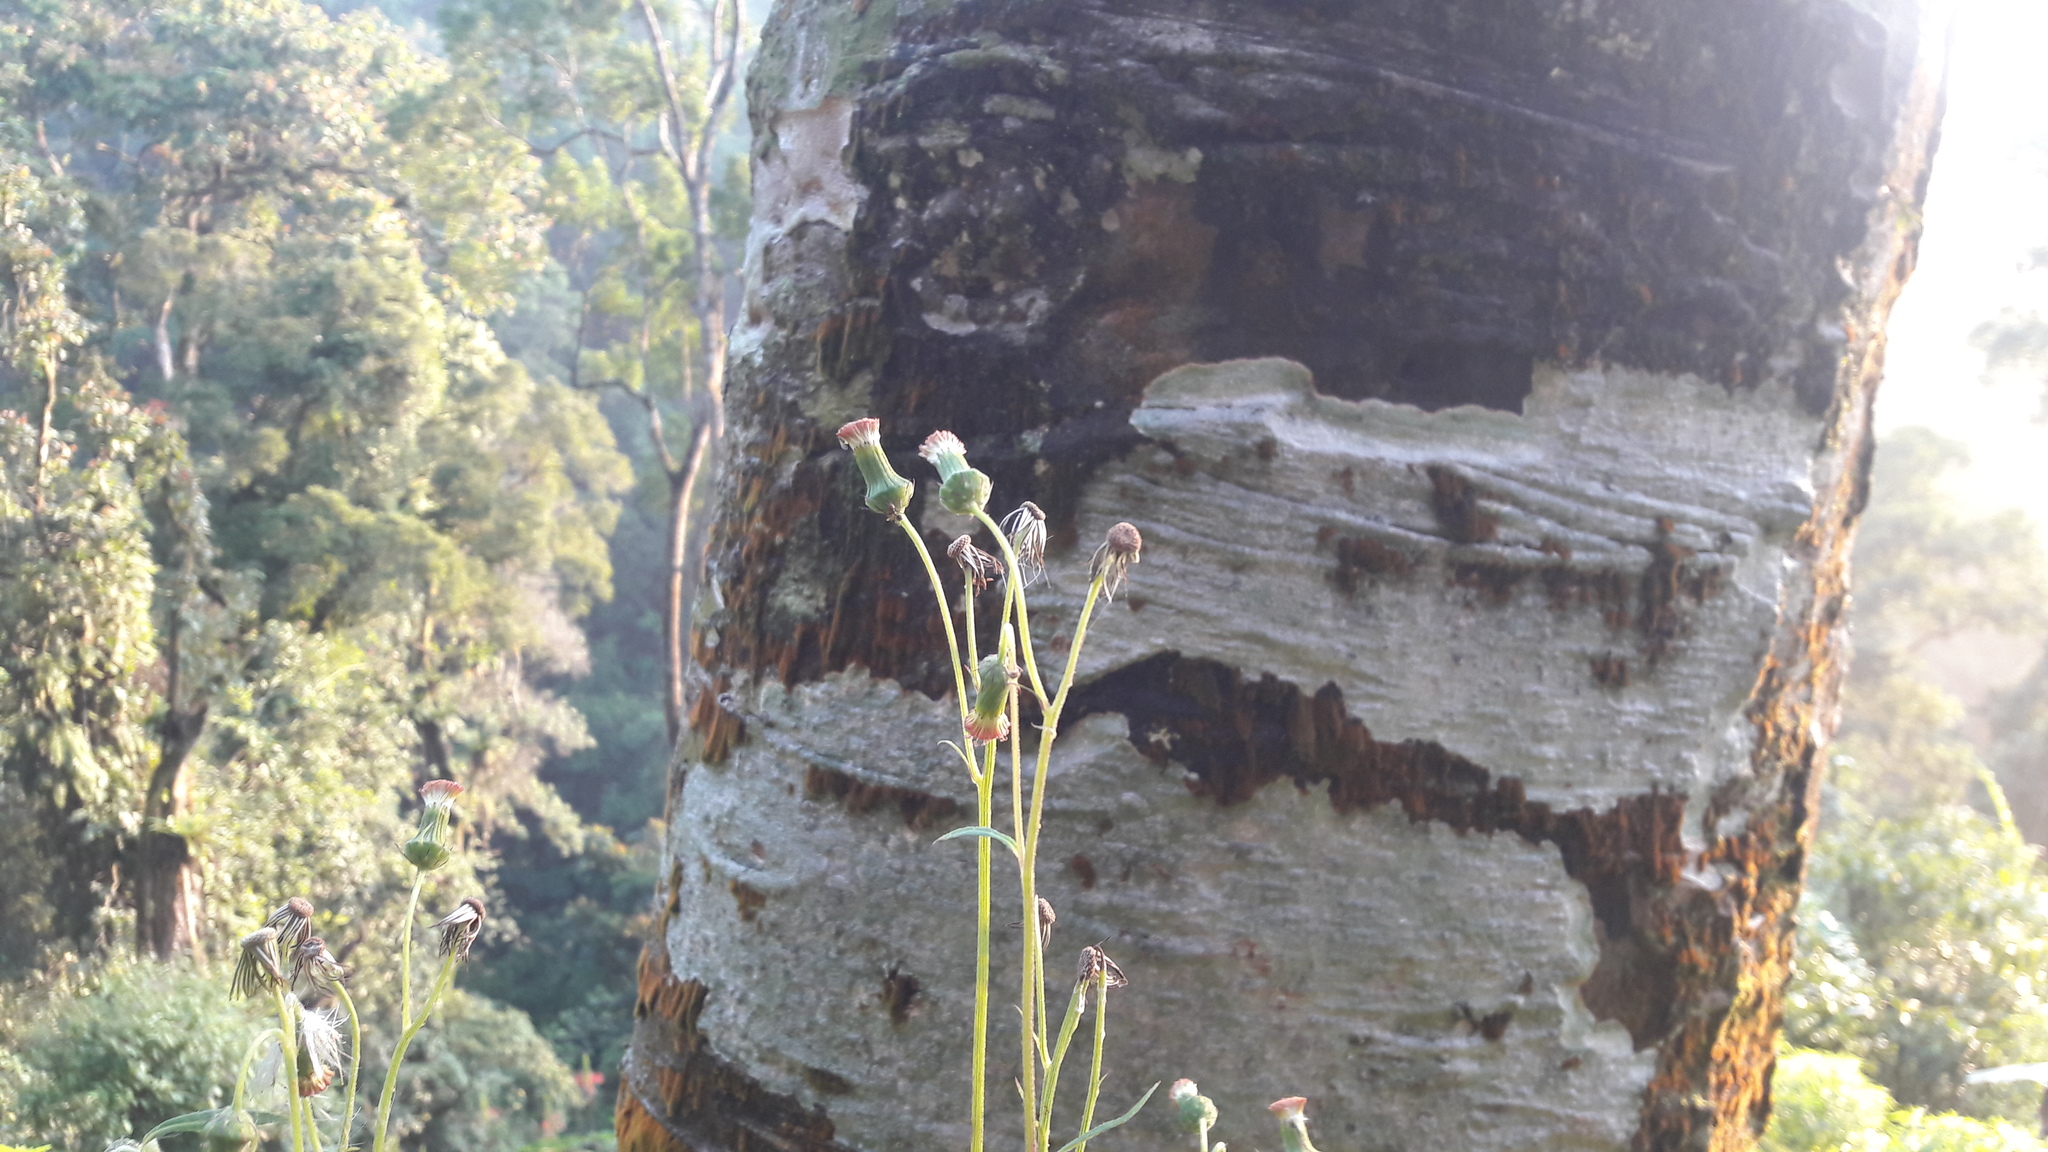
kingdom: Plantae
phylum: Tracheophyta
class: Magnoliopsida
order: Asterales
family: Asteraceae
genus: Crassocephalum
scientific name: Crassocephalum crepidioides
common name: Redflower ragleaf
